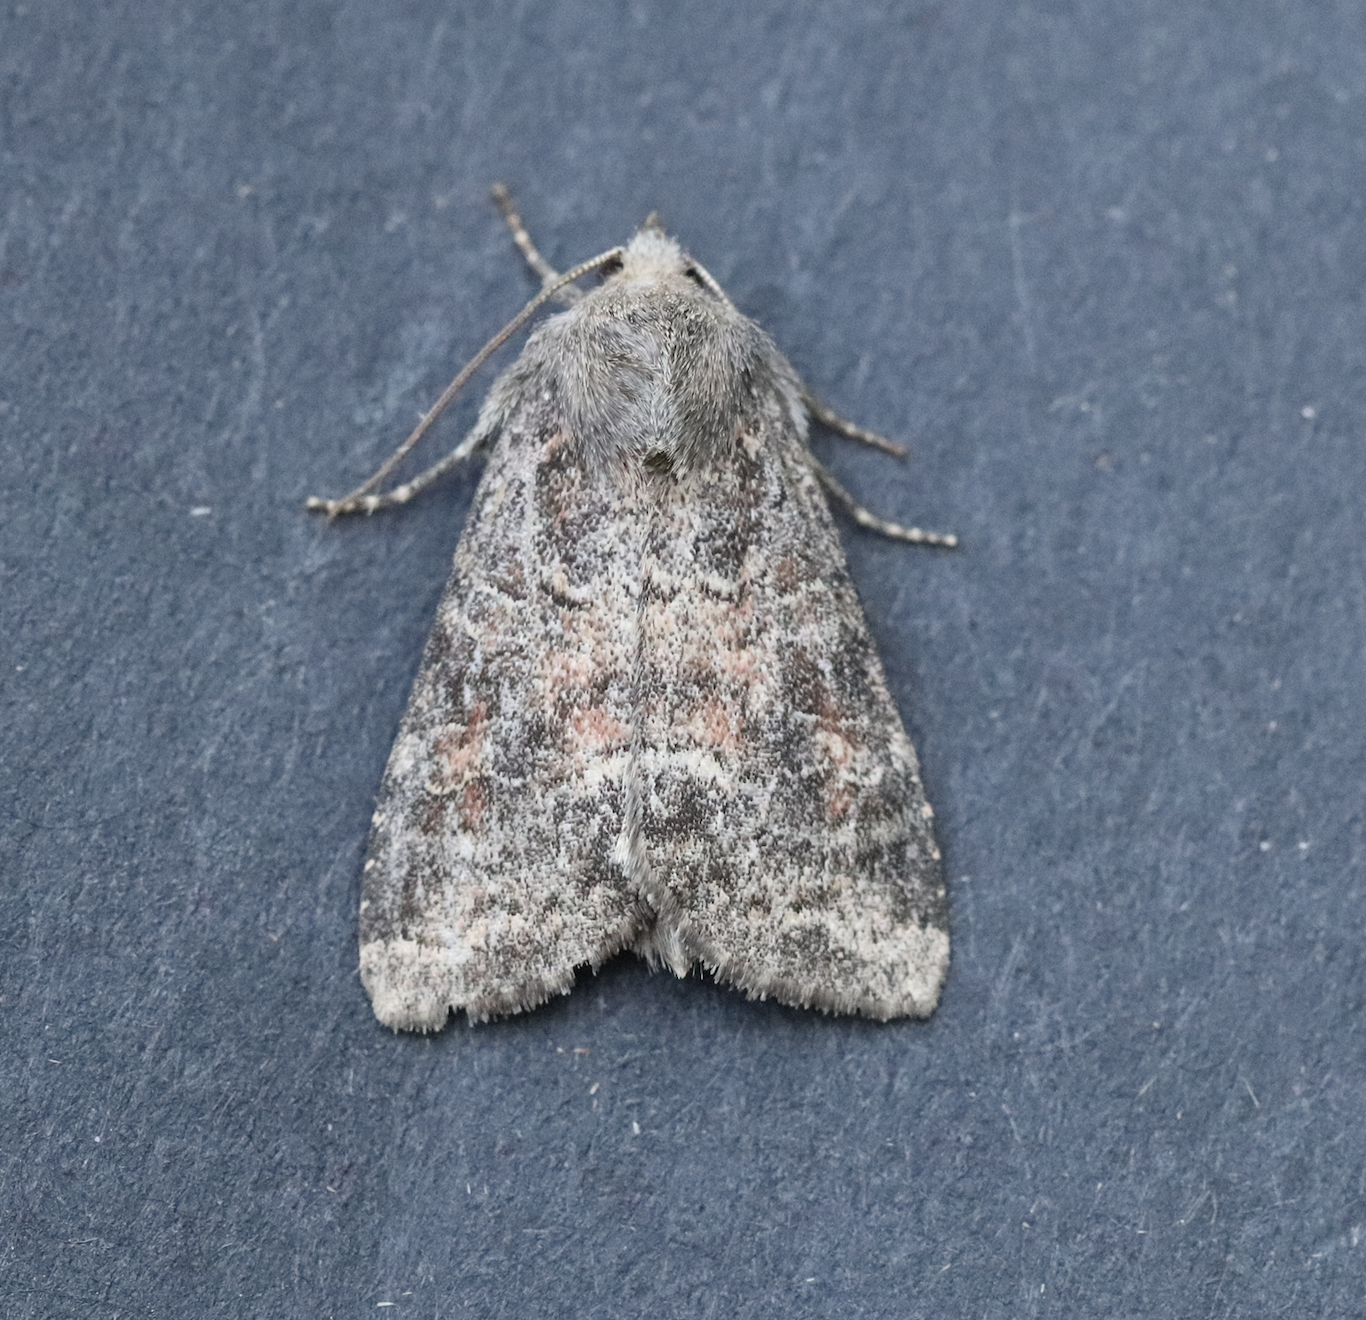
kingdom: Animalia
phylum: Arthropoda
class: Insecta
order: Lepidoptera
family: Noctuidae
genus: Parastichtis
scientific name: Parastichtis suspecta
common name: Suspected
